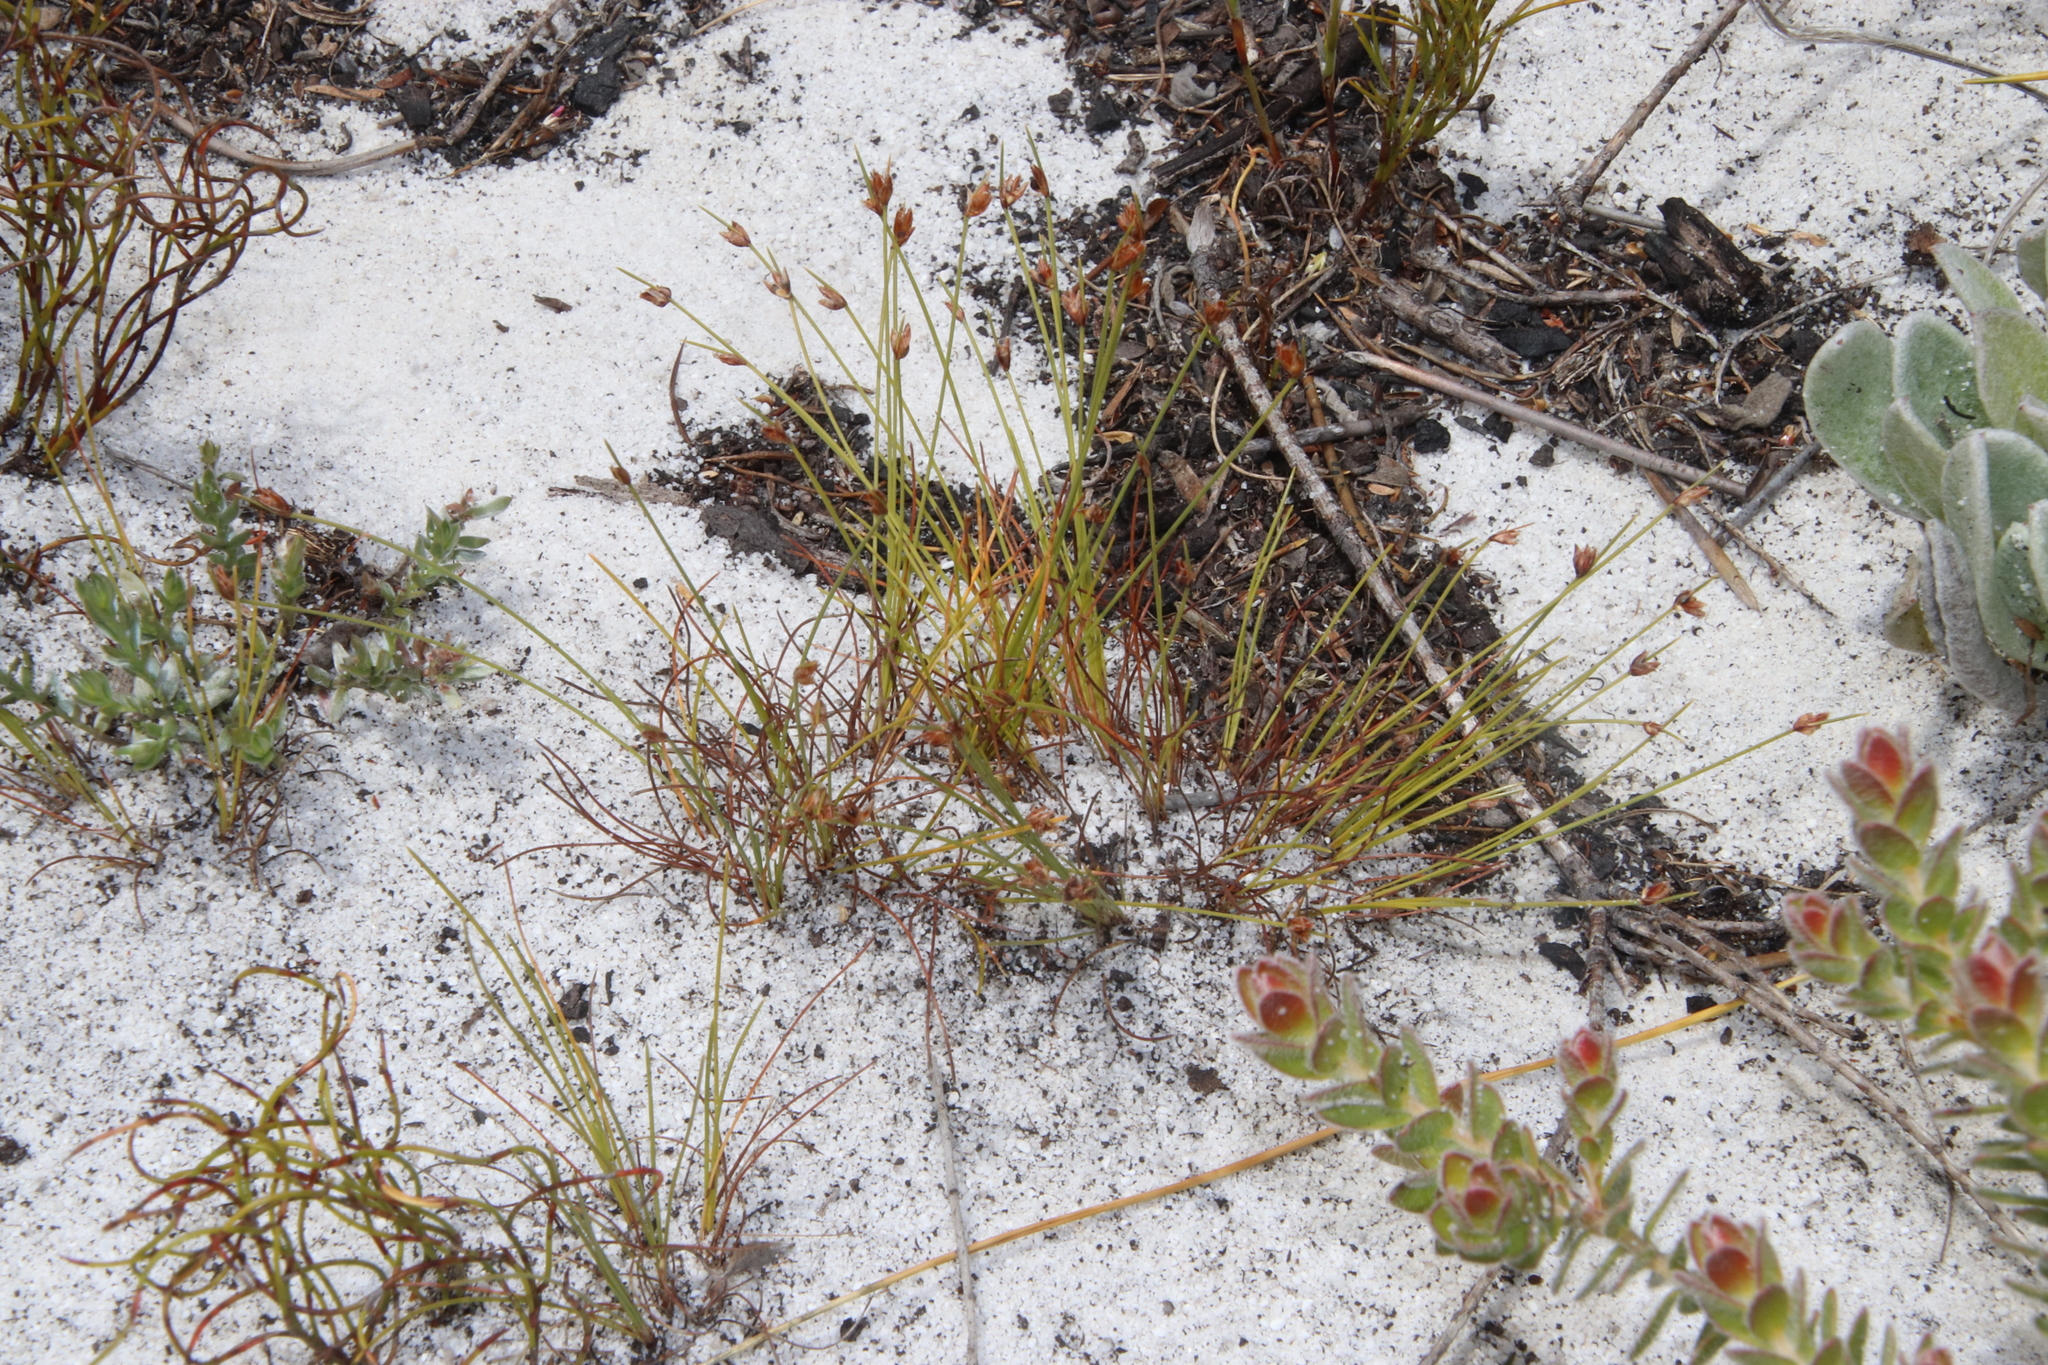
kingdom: Plantae
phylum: Tracheophyta
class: Liliopsida
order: Poales
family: Cyperaceae
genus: Ficinia
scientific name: Ficinia oligantha
